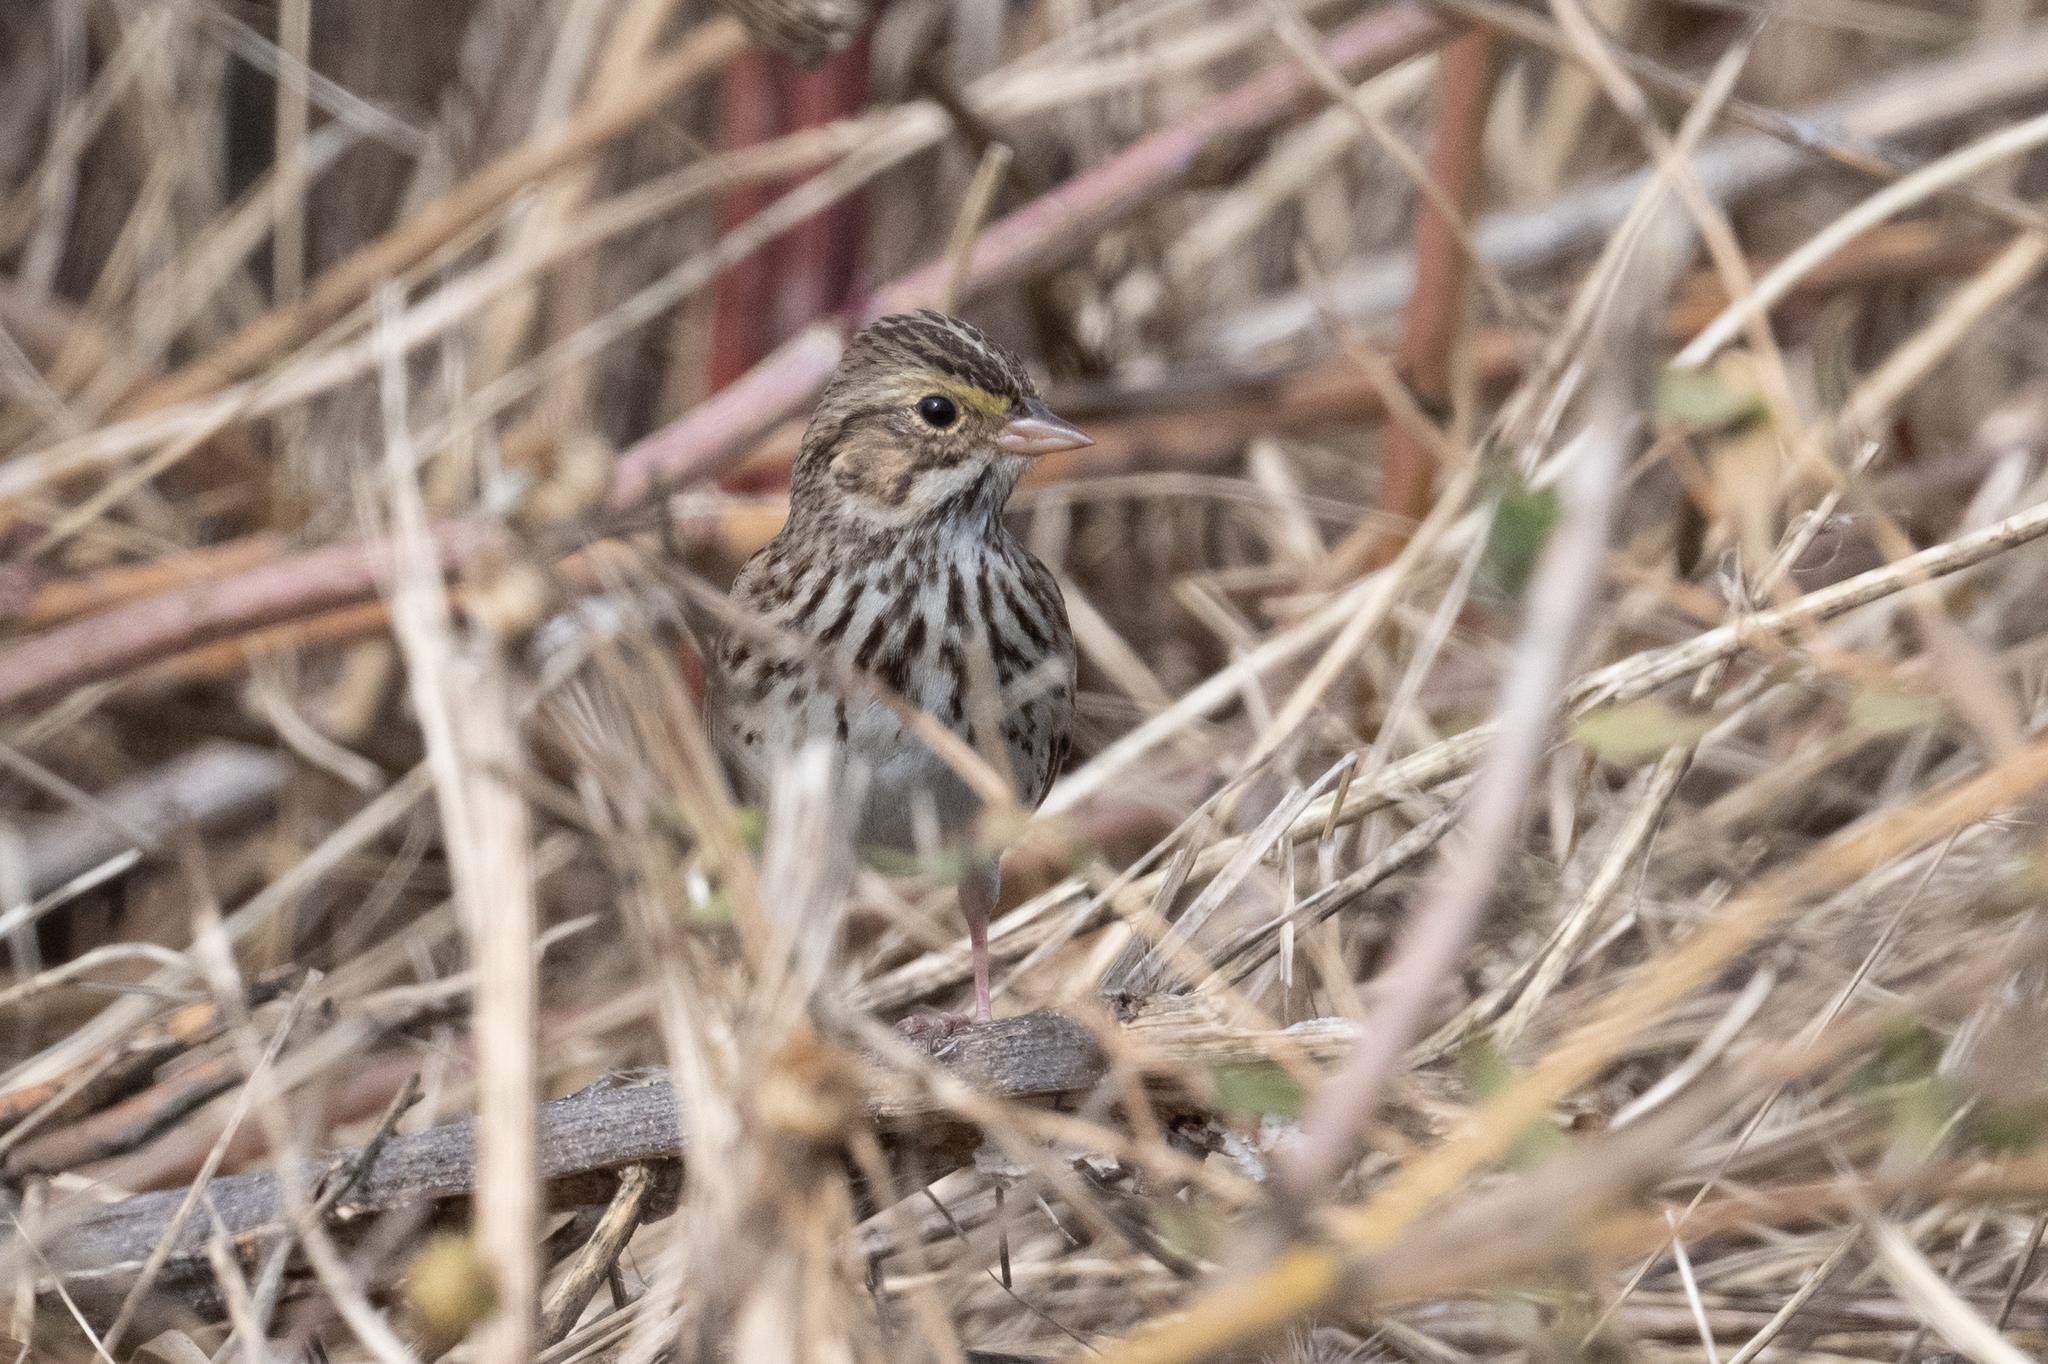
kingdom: Animalia
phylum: Chordata
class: Aves
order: Passeriformes
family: Passerellidae
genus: Passerculus
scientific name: Passerculus sandwichensis
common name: Savannah sparrow
